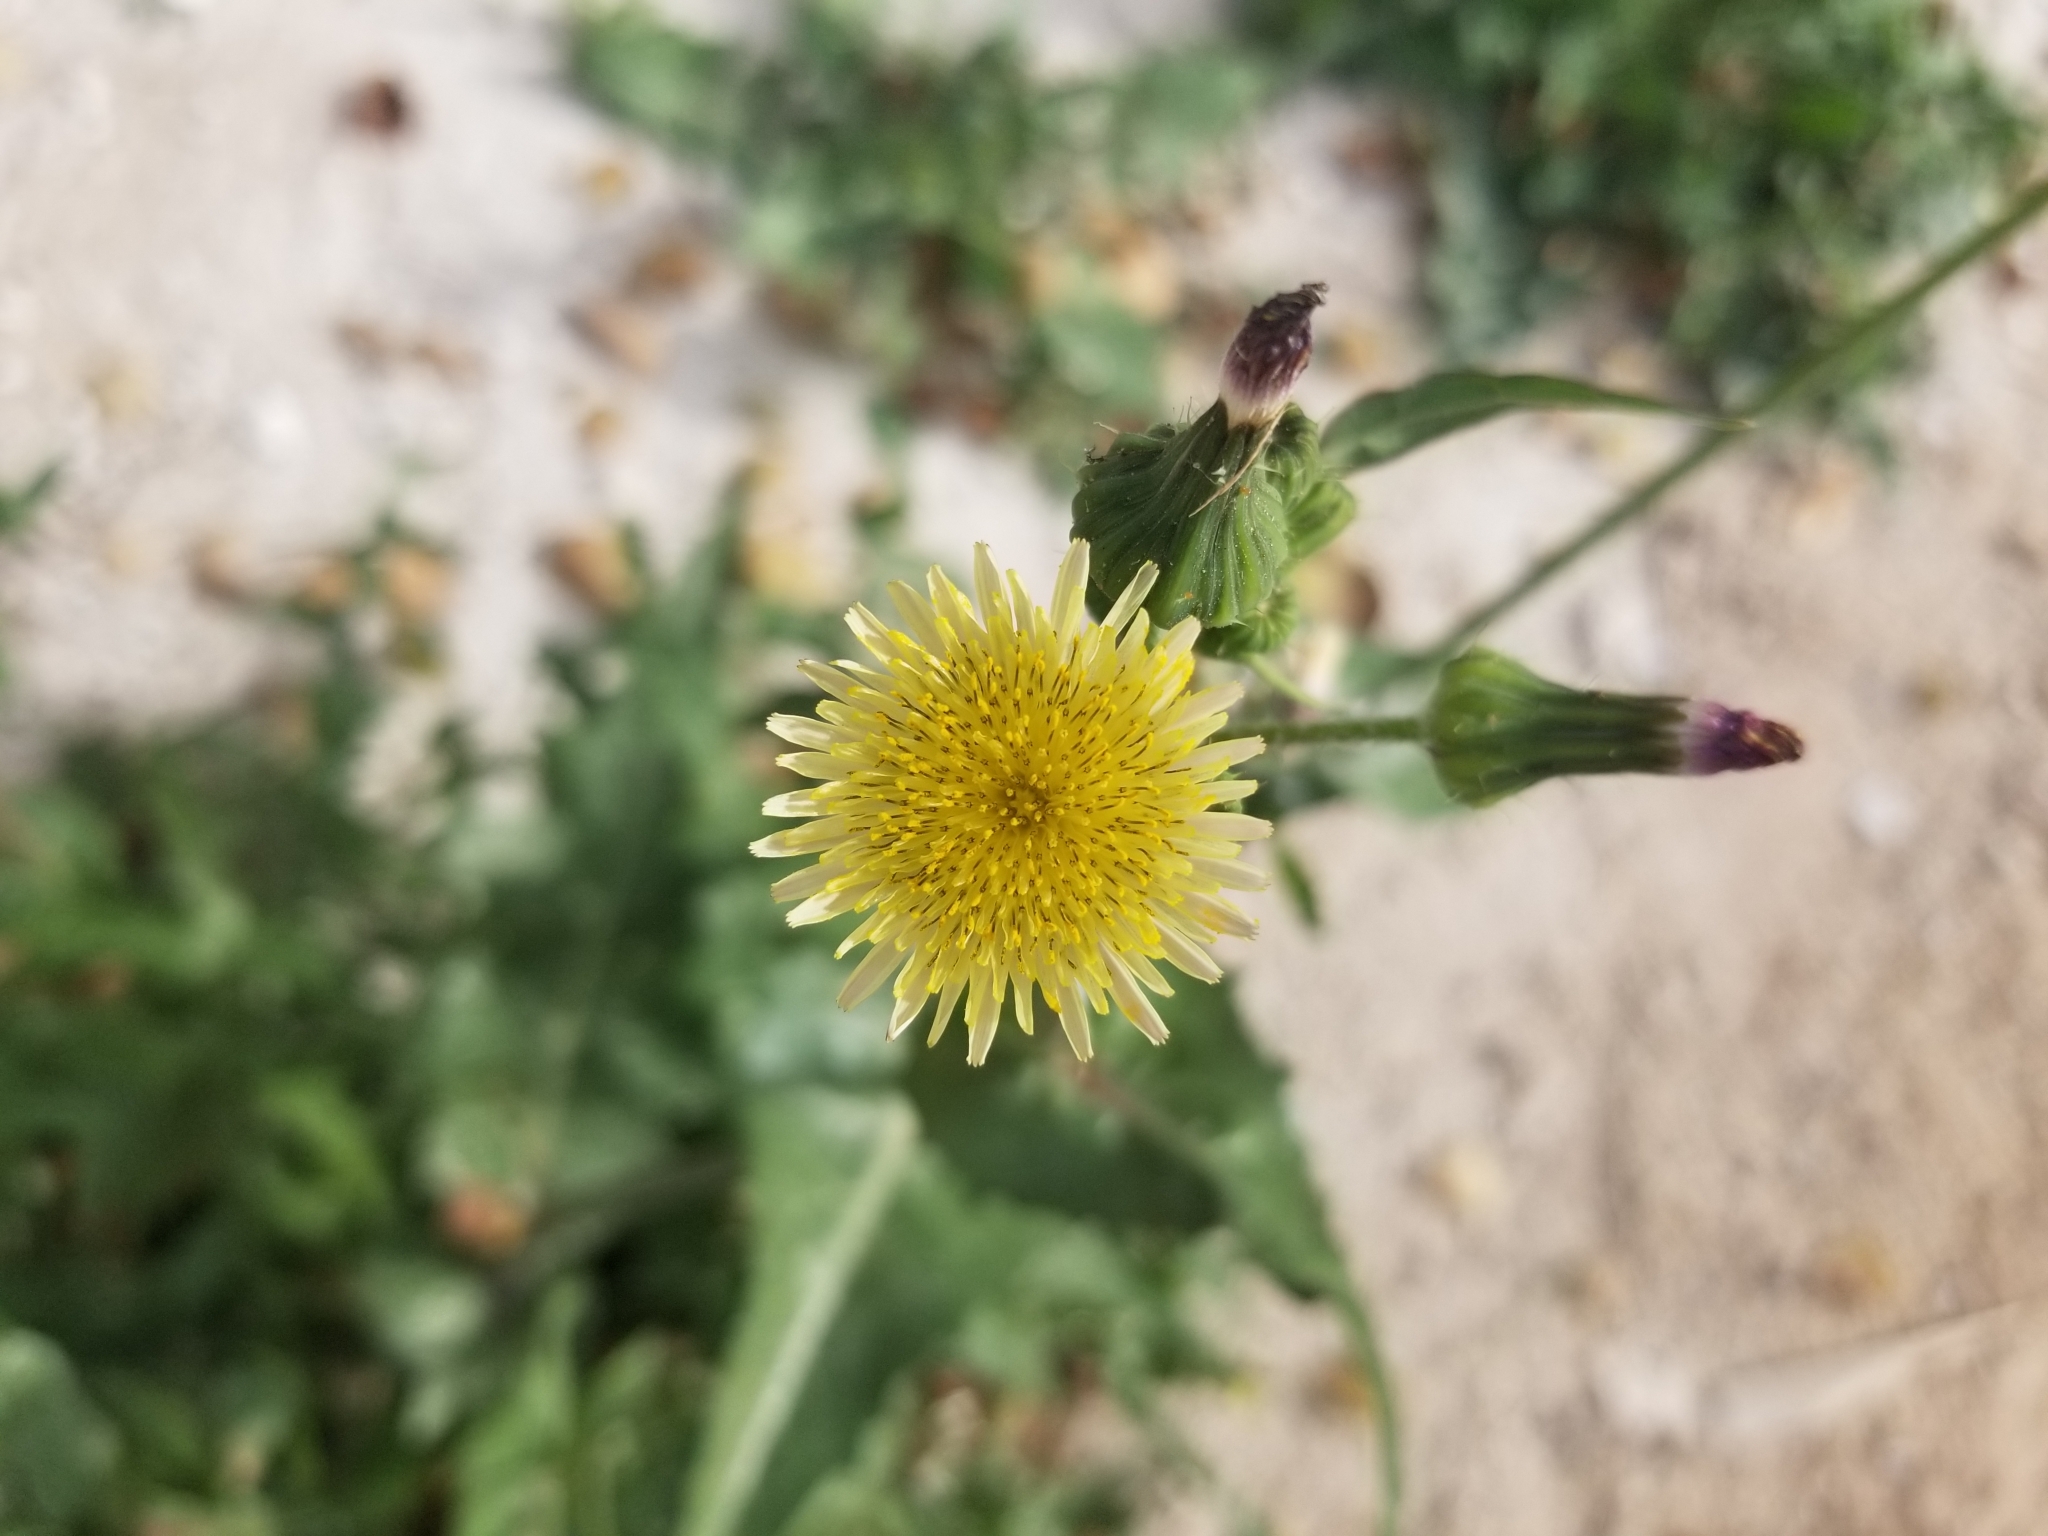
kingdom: Plantae
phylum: Tracheophyta
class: Magnoliopsida
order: Asterales
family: Asteraceae
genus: Sonchus
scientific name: Sonchus oleraceus
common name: Common sowthistle
